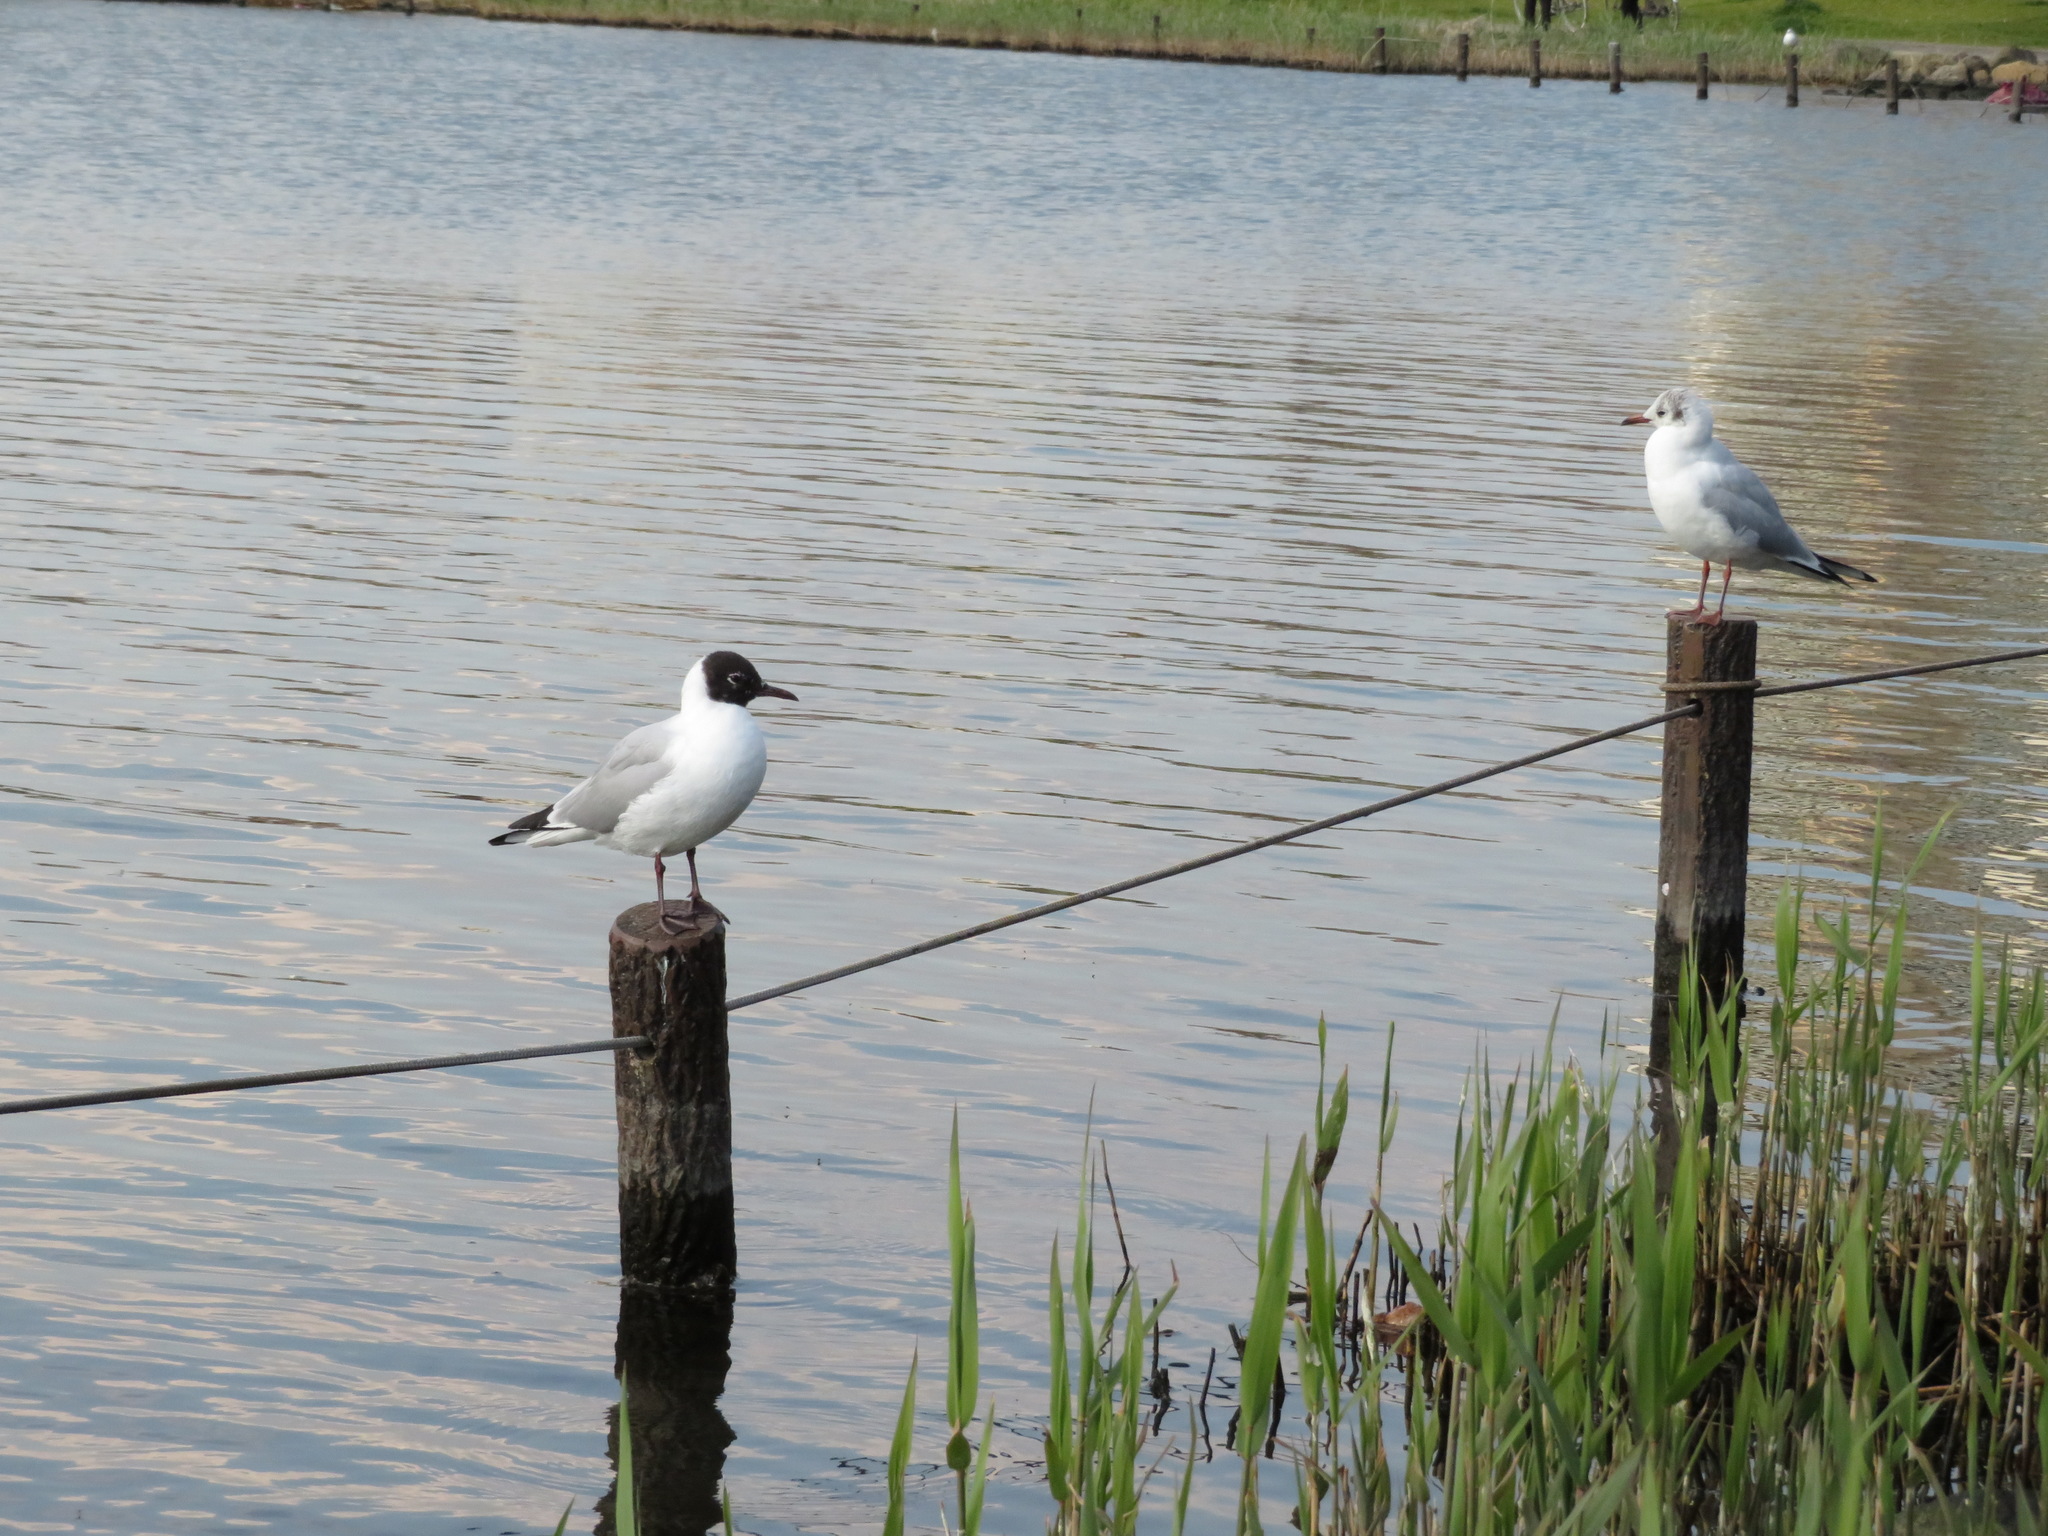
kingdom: Animalia
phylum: Chordata
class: Aves
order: Charadriiformes
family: Laridae
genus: Chroicocephalus
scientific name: Chroicocephalus ridibundus
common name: Black-headed gull
